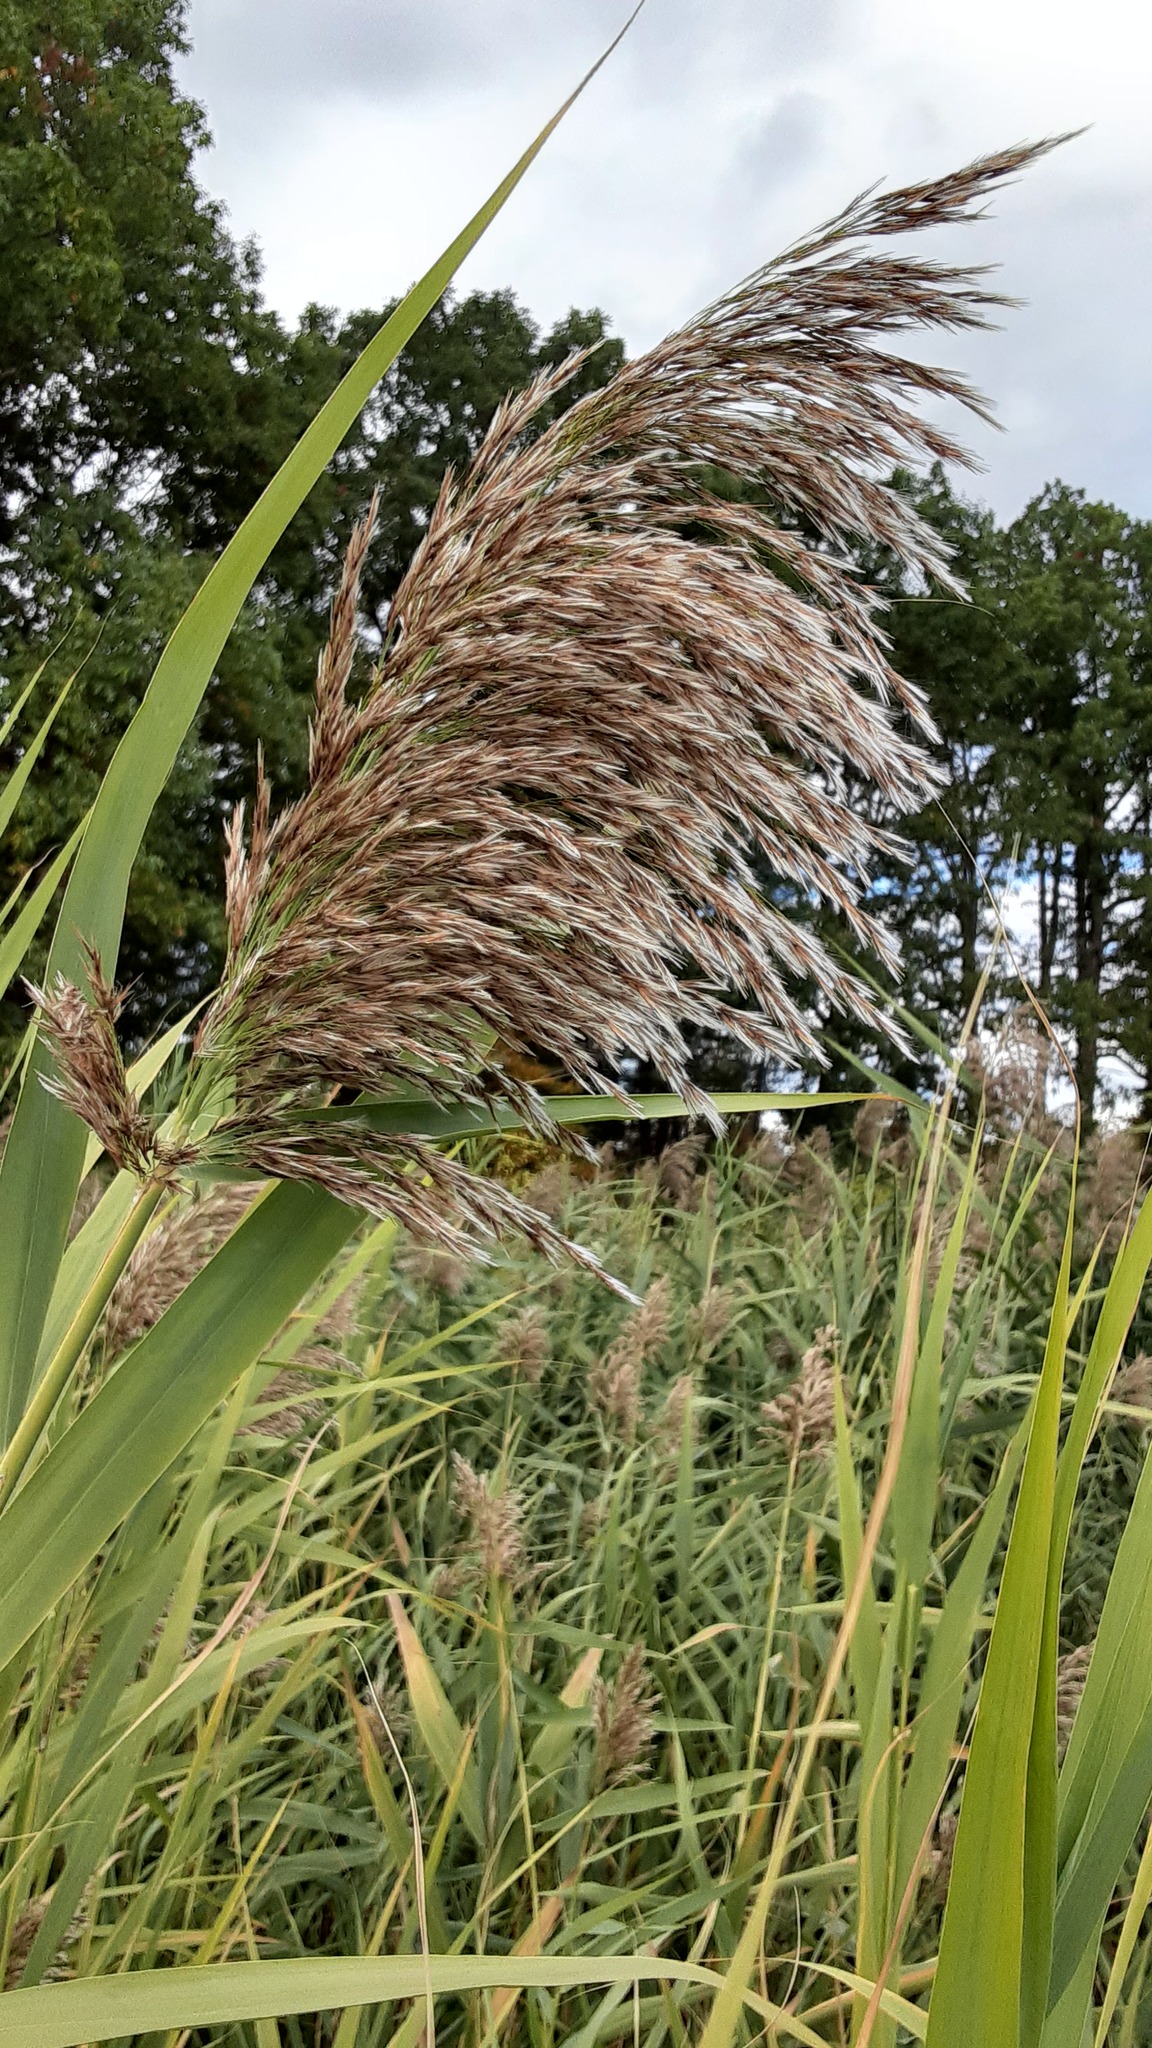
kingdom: Plantae
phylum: Tracheophyta
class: Liliopsida
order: Poales
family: Poaceae
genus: Phragmites
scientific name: Phragmites australis
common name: Common reed
